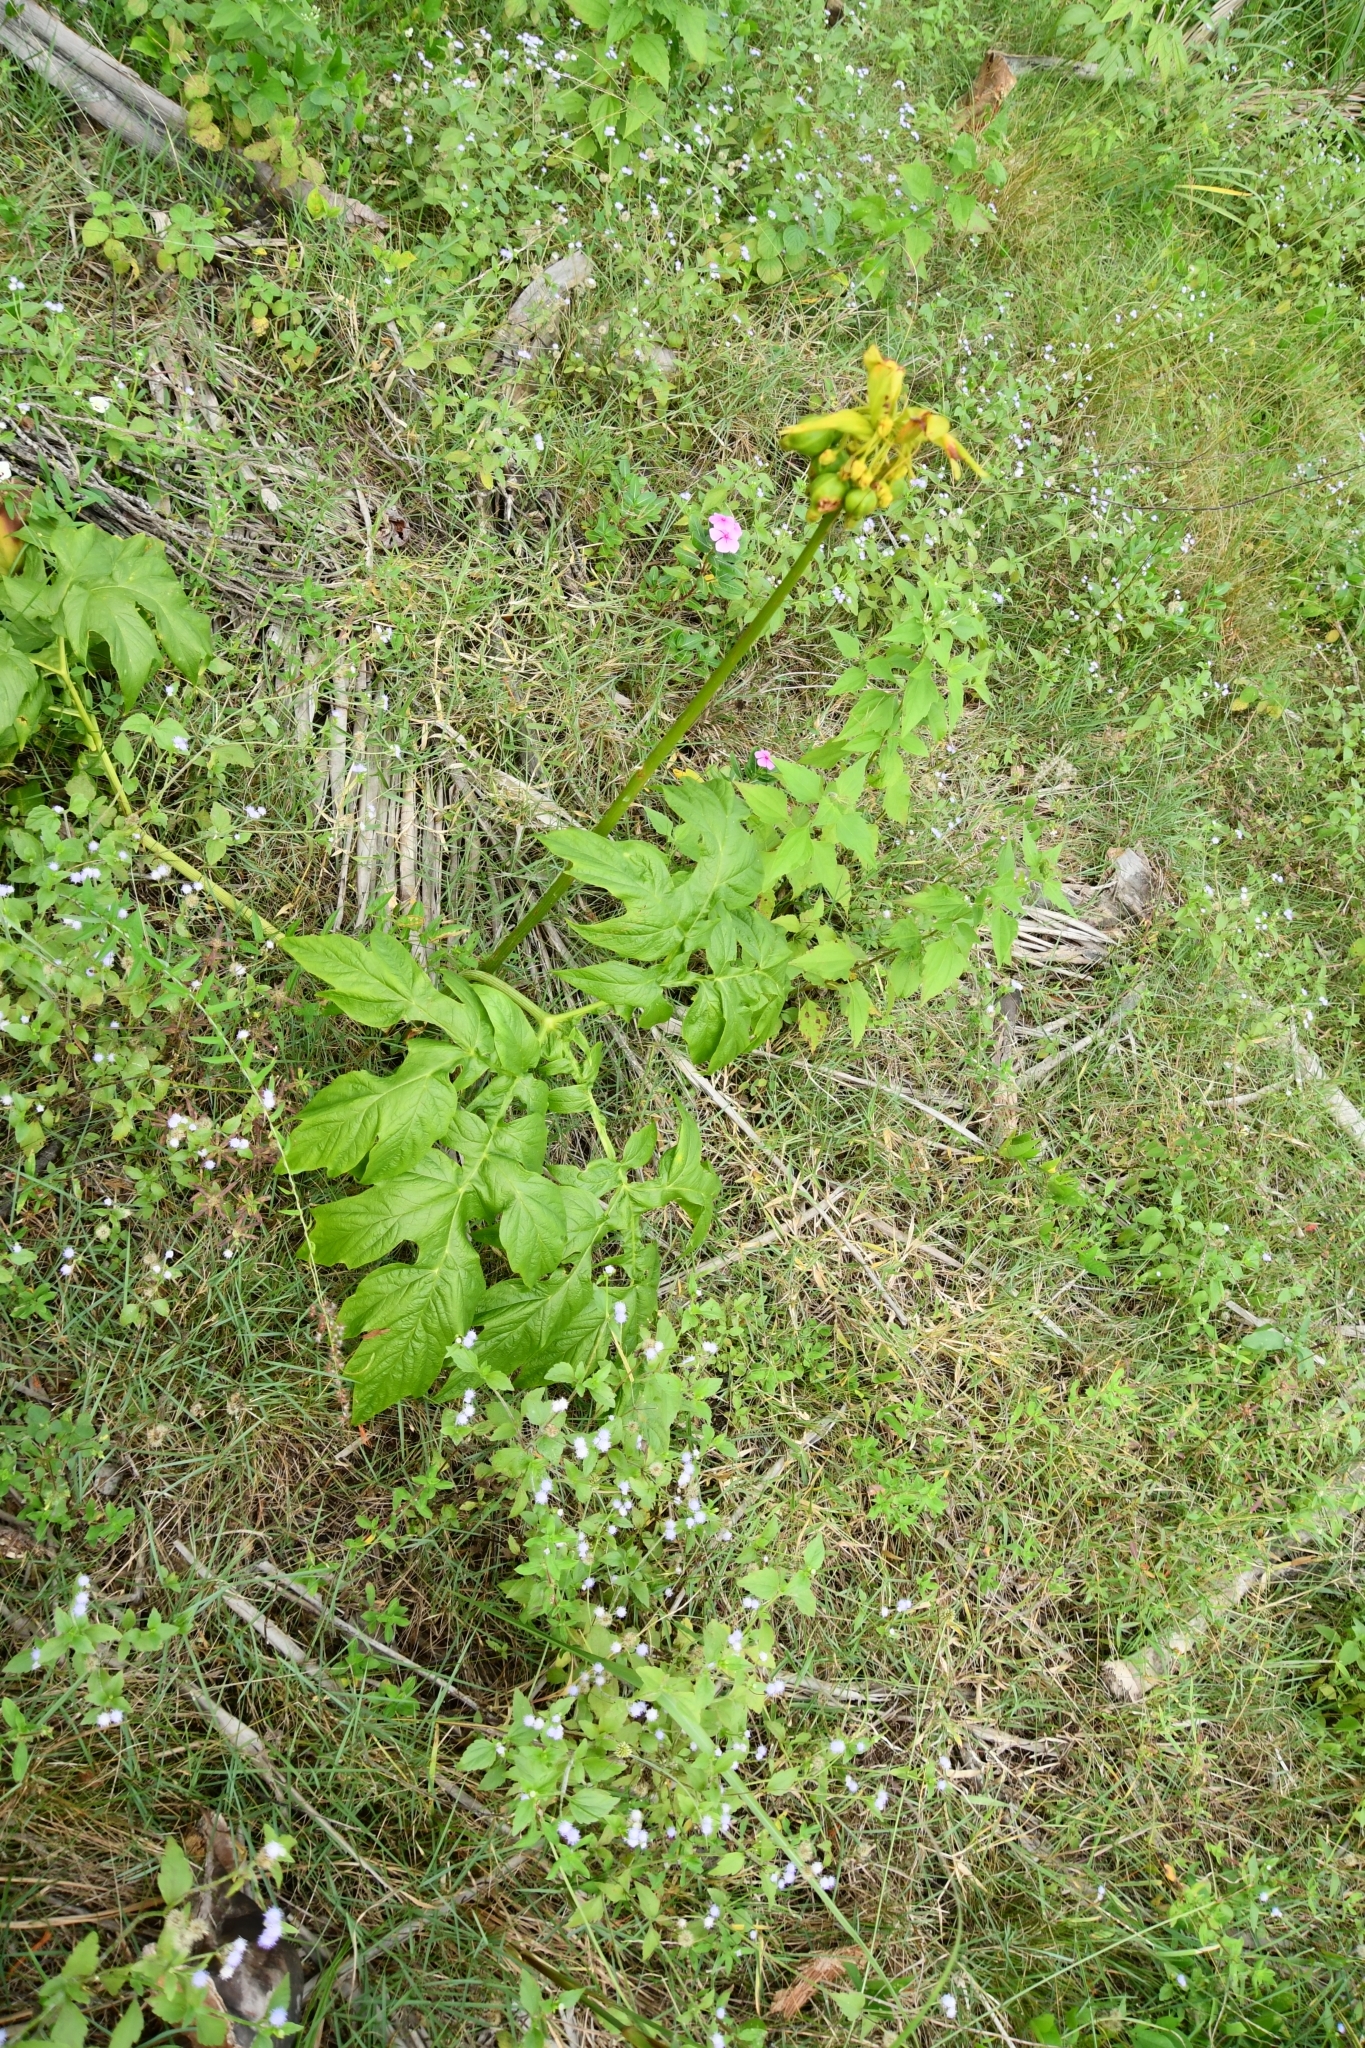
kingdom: Plantae
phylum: Tracheophyta
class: Liliopsida
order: Dioscoreales
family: Dioscoreaceae
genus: Tacca
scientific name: Tacca leontopetaloides
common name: Arrowroot
